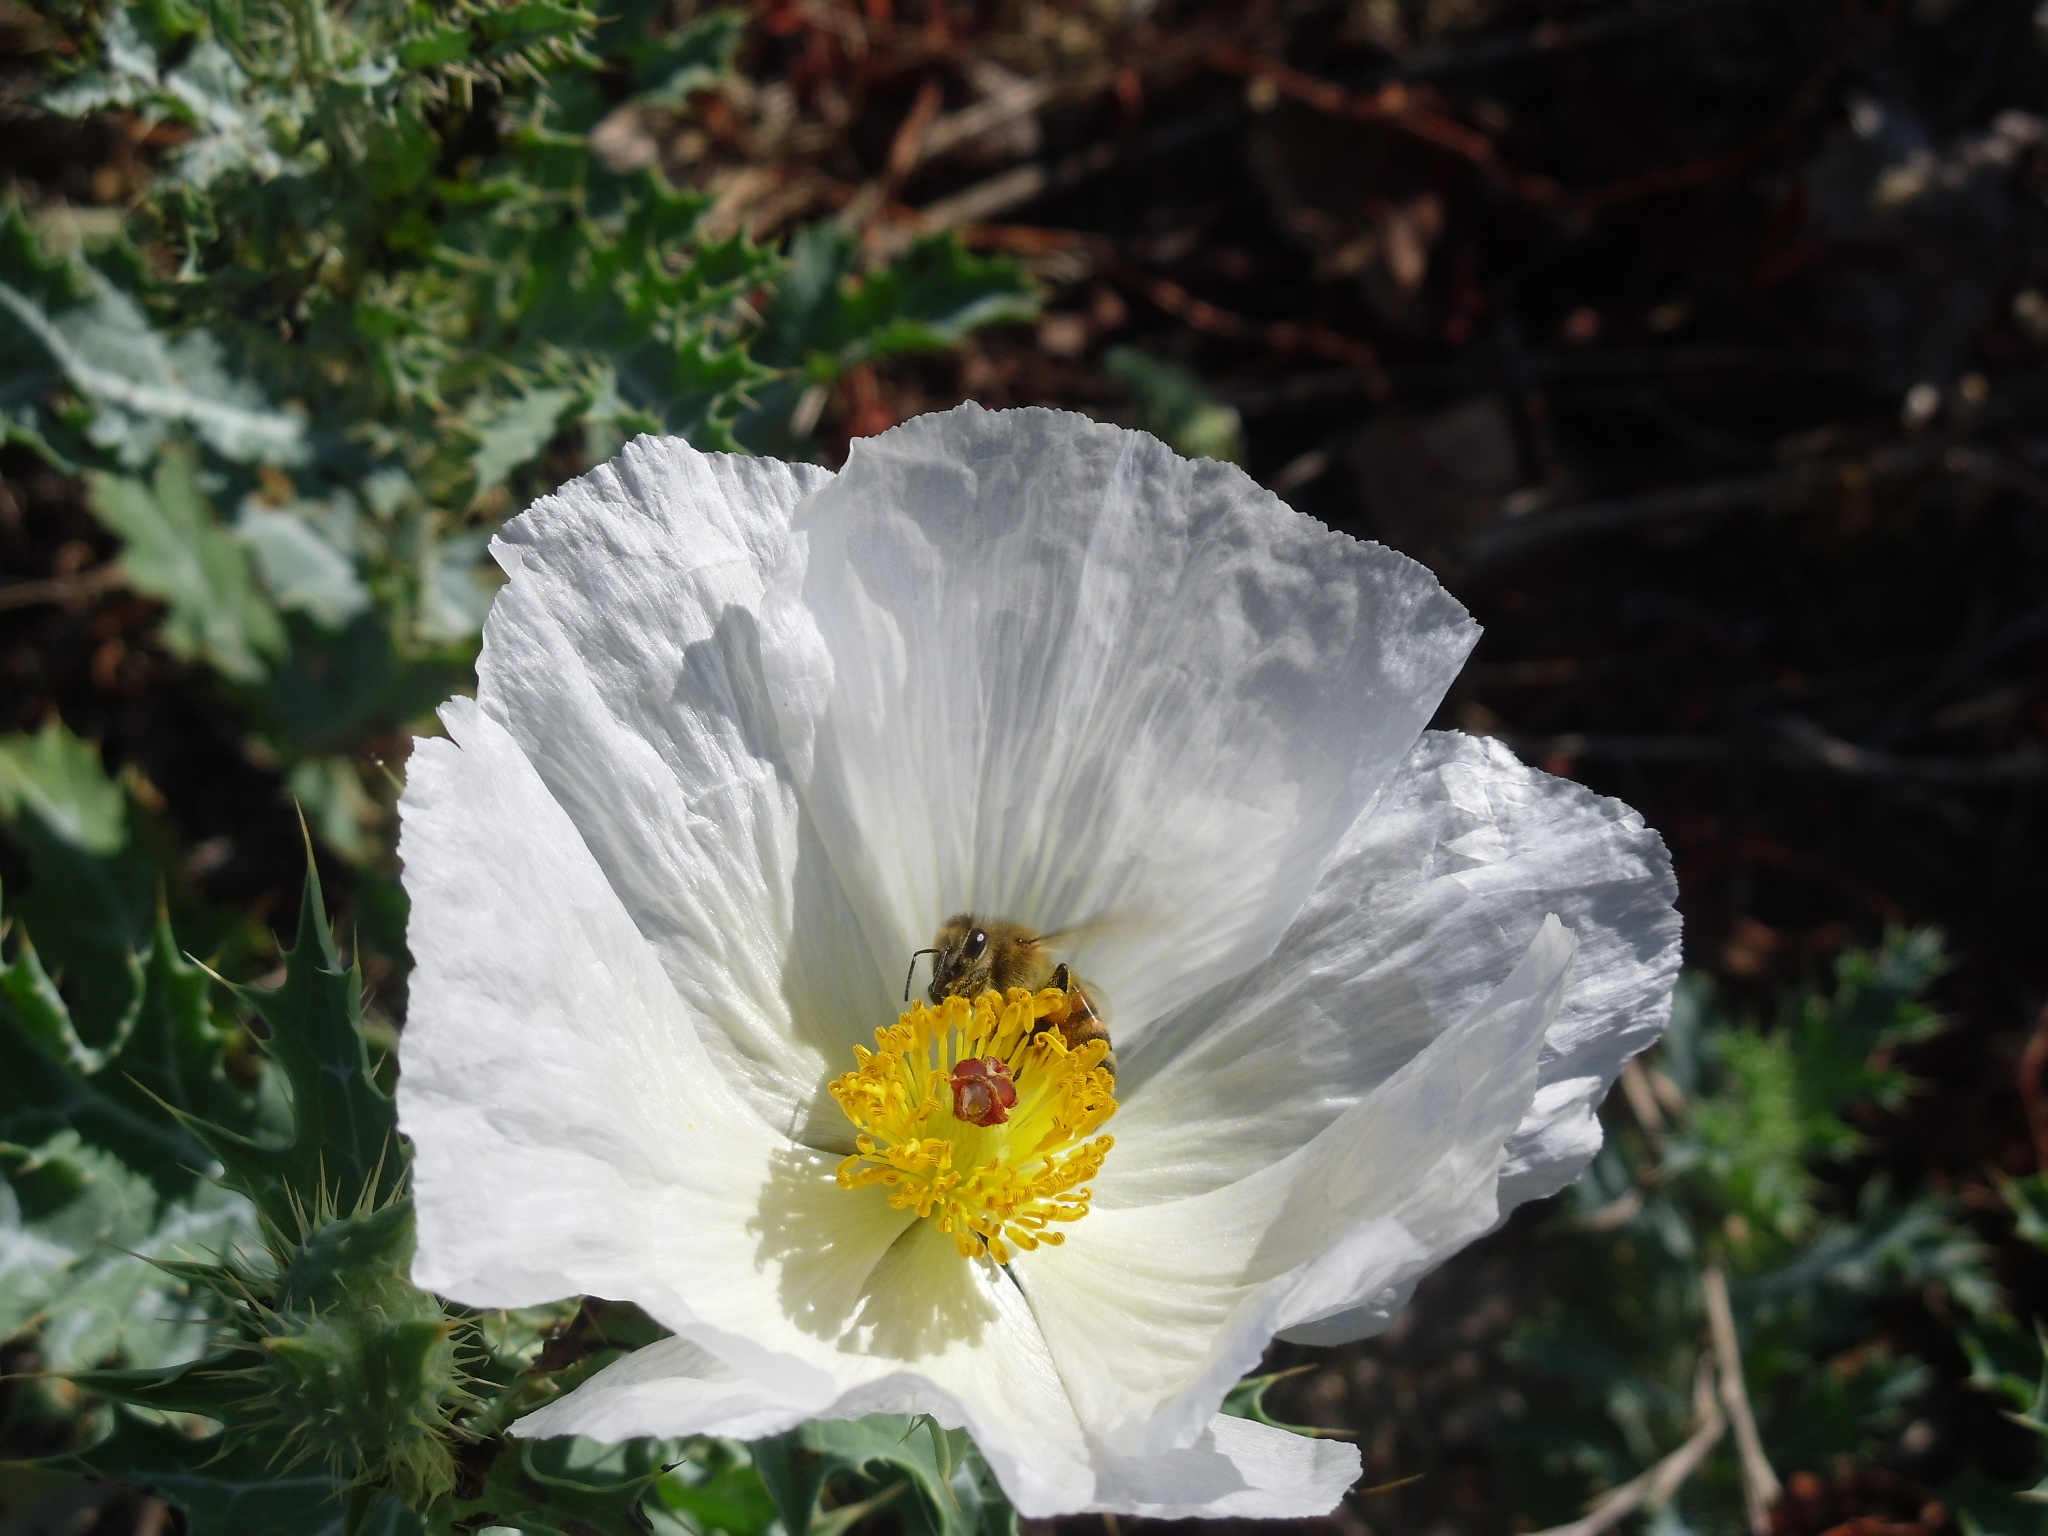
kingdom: Plantae
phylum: Tracheophyta
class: Magnoliopsida
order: Ranunculales
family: Papaveraceae
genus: Argemone
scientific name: Argemone polyanthemos
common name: Plains prickly-poppy
